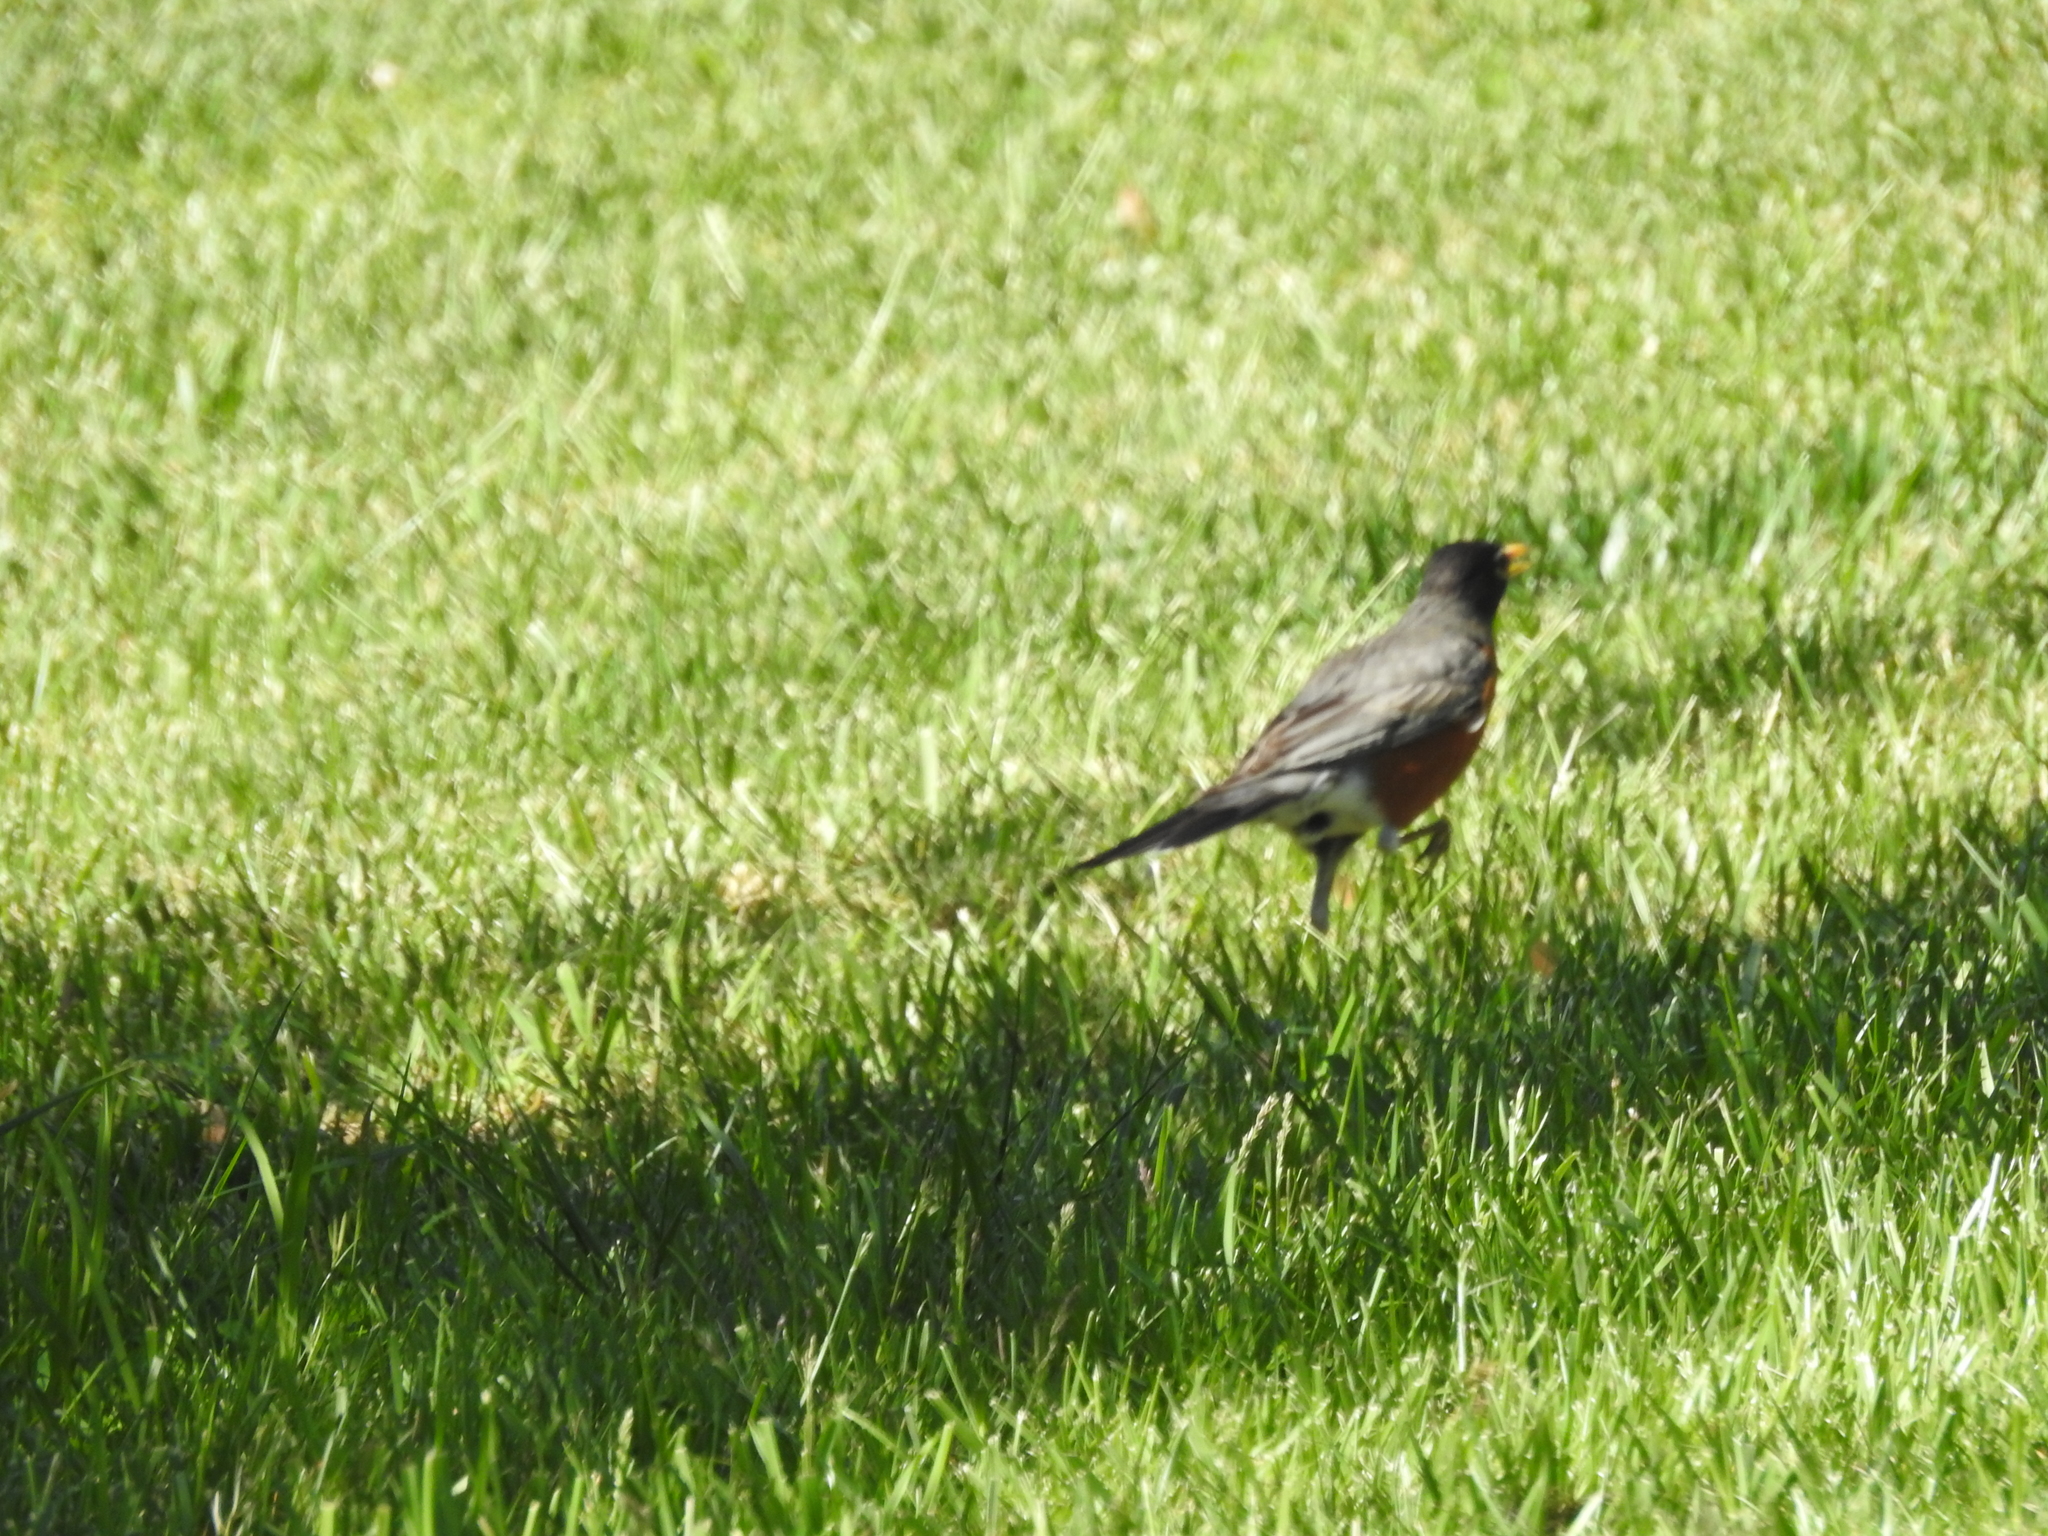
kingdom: Animalia
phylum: Chordata
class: Aves
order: Passeriformes
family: Turdidae
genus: Turdus
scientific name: Turdus migratorius
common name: American robin
